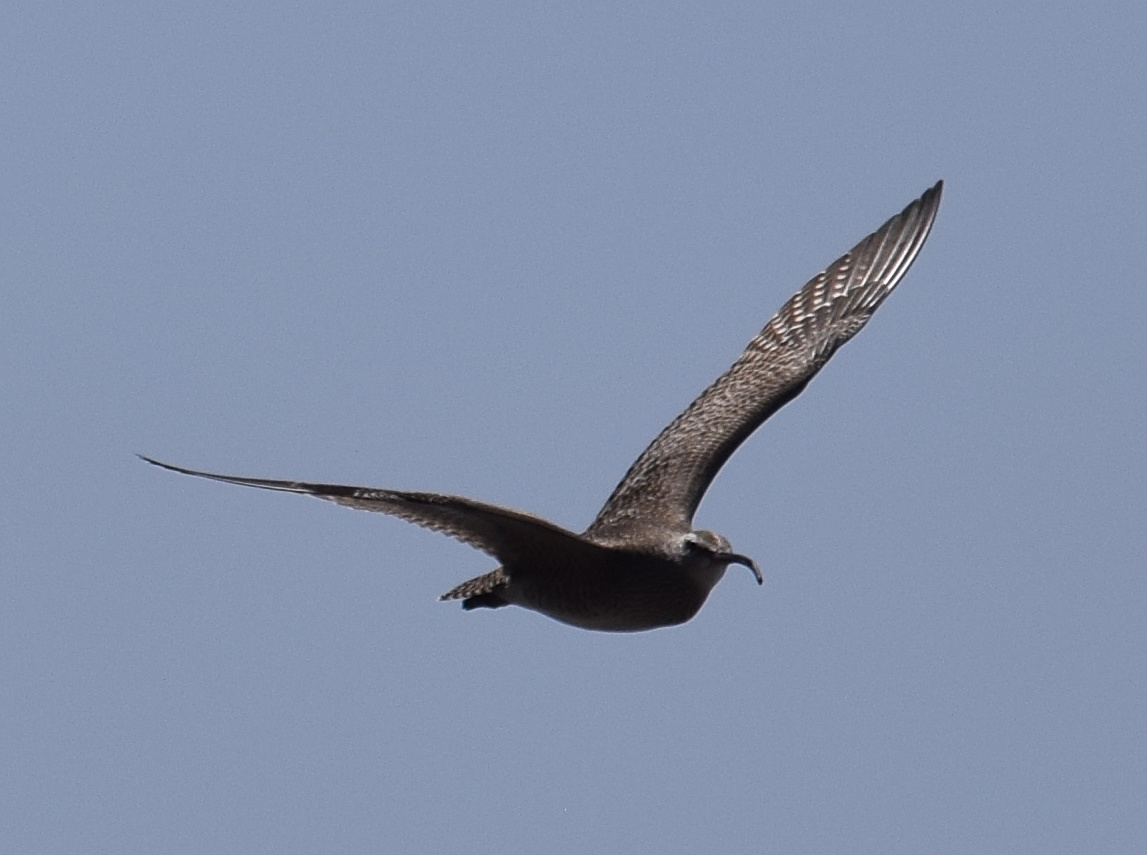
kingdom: Animalia
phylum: Chordata
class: Aves
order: Charadriiformes
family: Scolopacidae
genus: Numenius
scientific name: Numenius phaeopus
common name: Whimbrel
